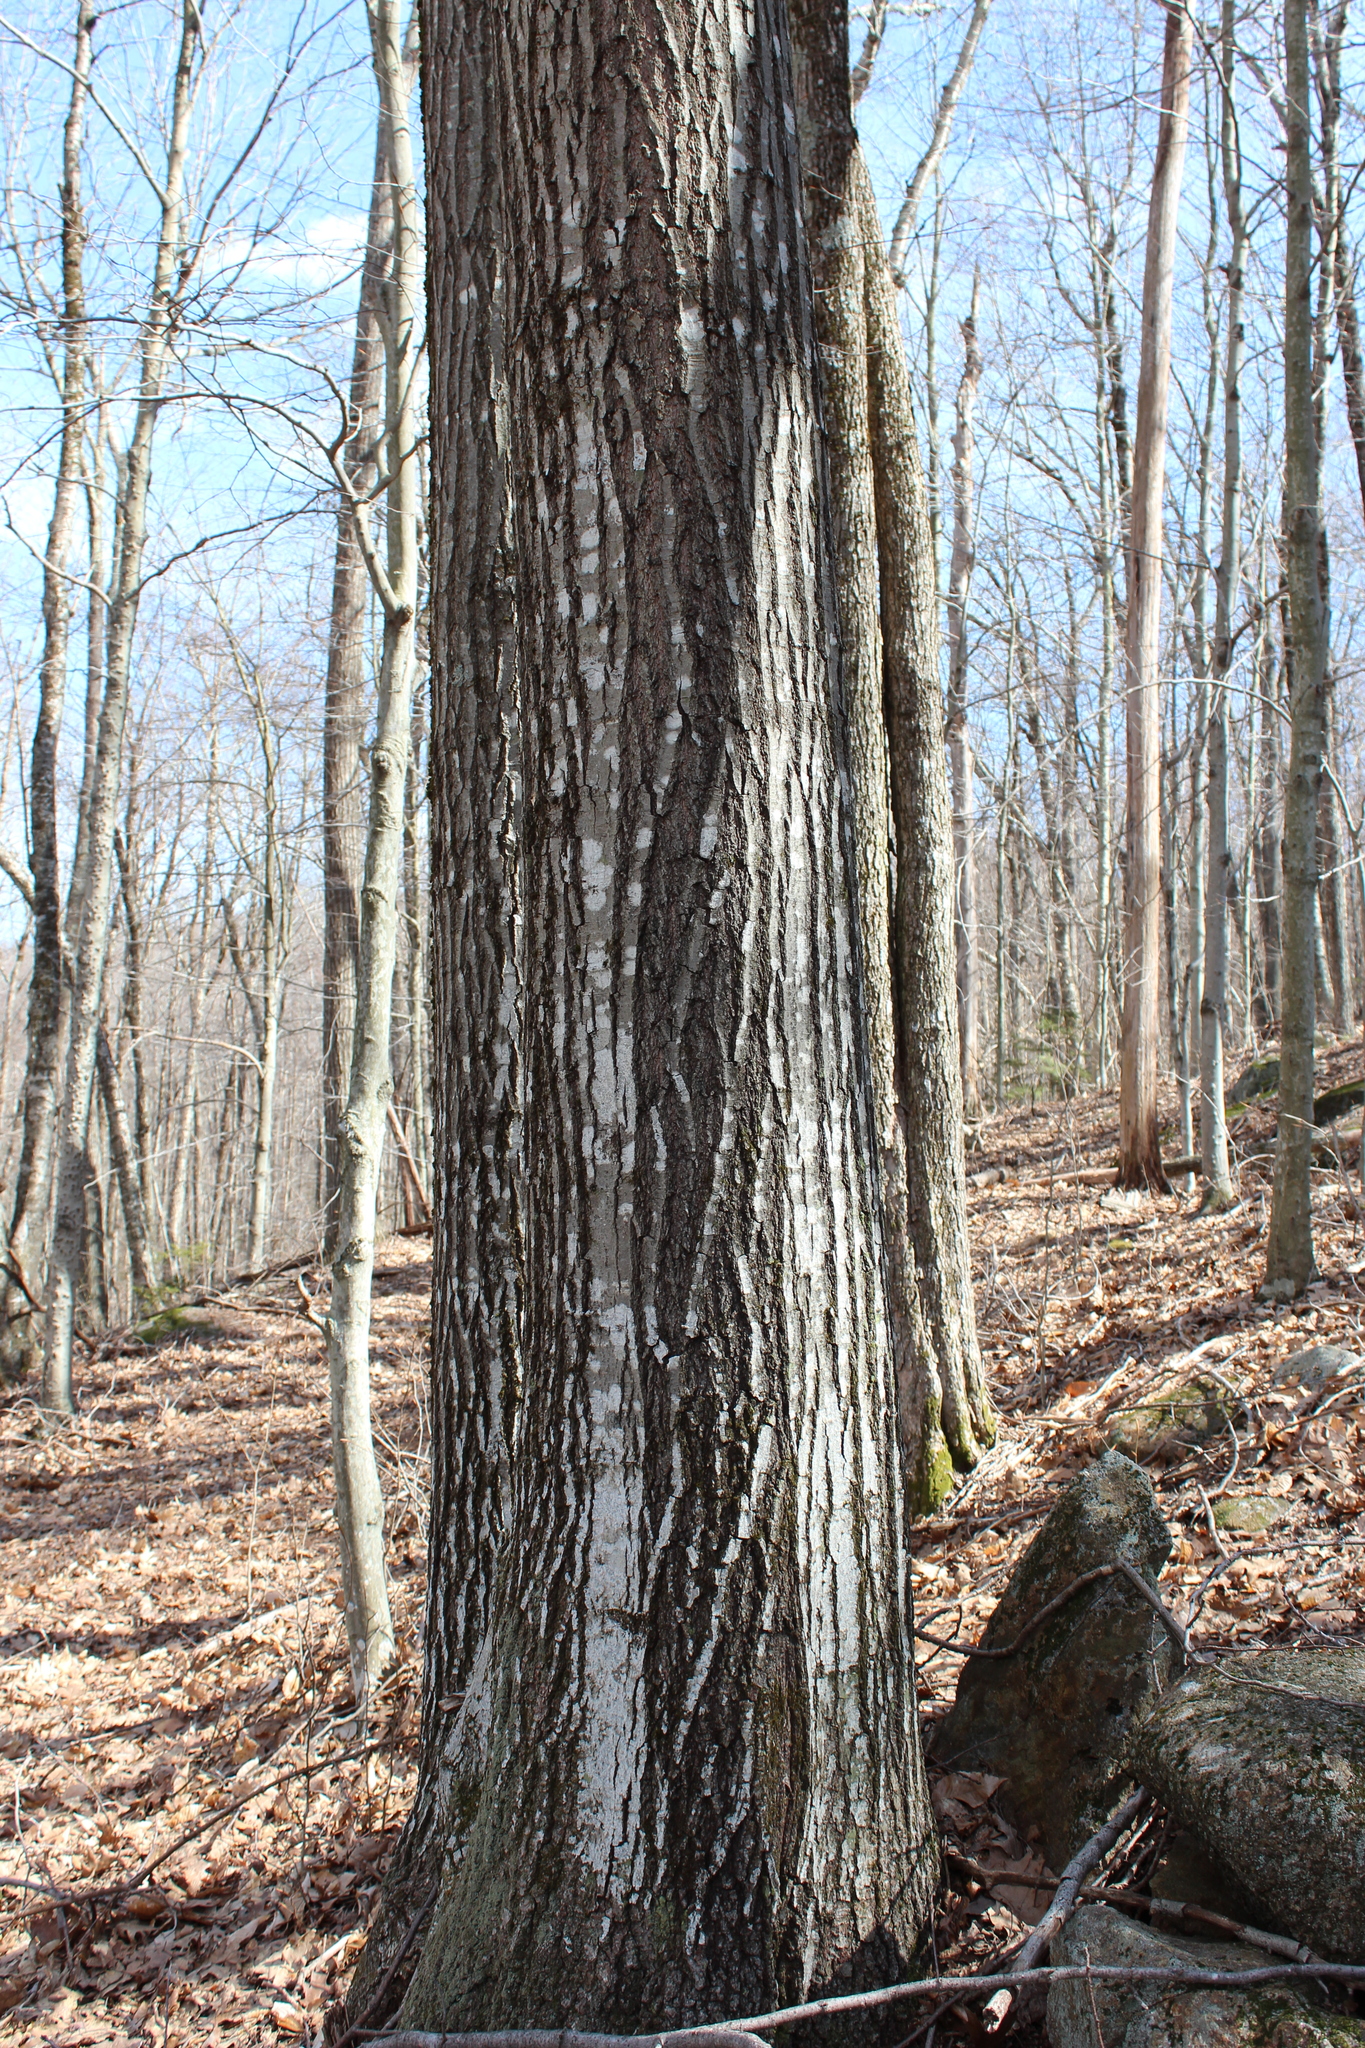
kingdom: Plantae
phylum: Tracheophyta
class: Magnoliopsida
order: Fagales
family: Fagaceae
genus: Quercus
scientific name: Quercus rubra
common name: Red oak
